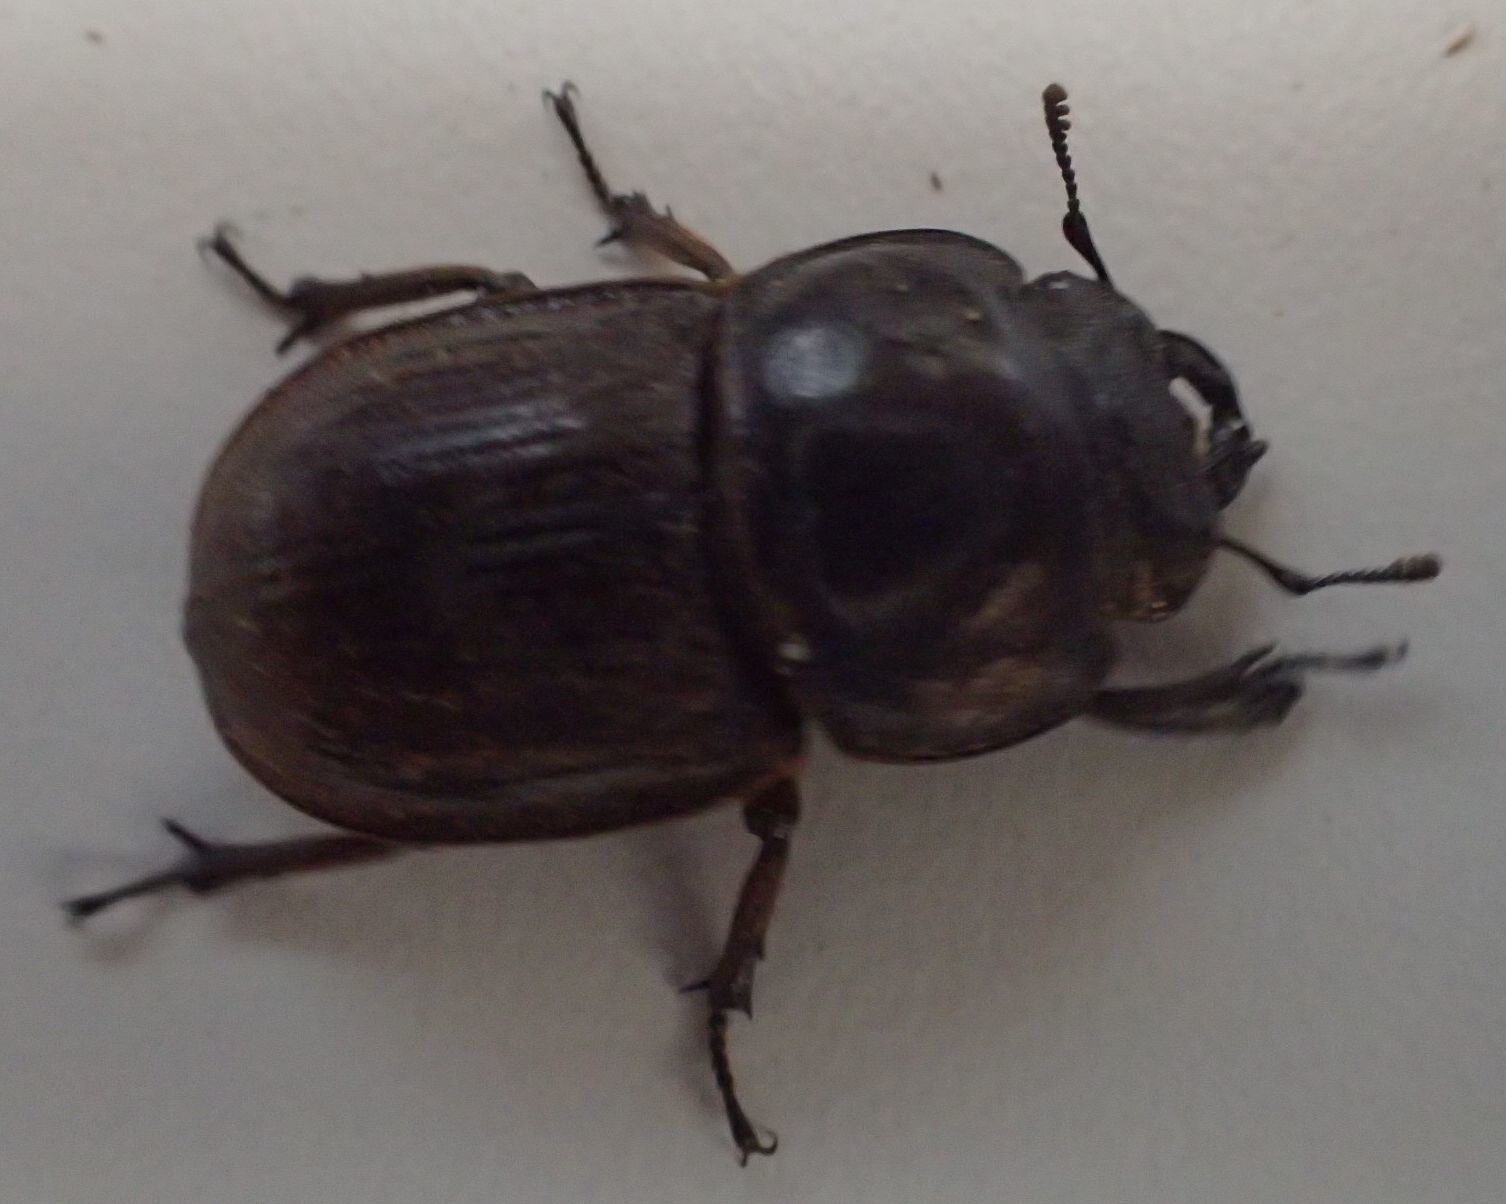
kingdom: Animalia
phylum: Arthropoda
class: Insecta
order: Coleoptera
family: Lucanidae
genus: Geodorcus
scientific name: Geodorcus helmsi
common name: Helm's stag beetle
